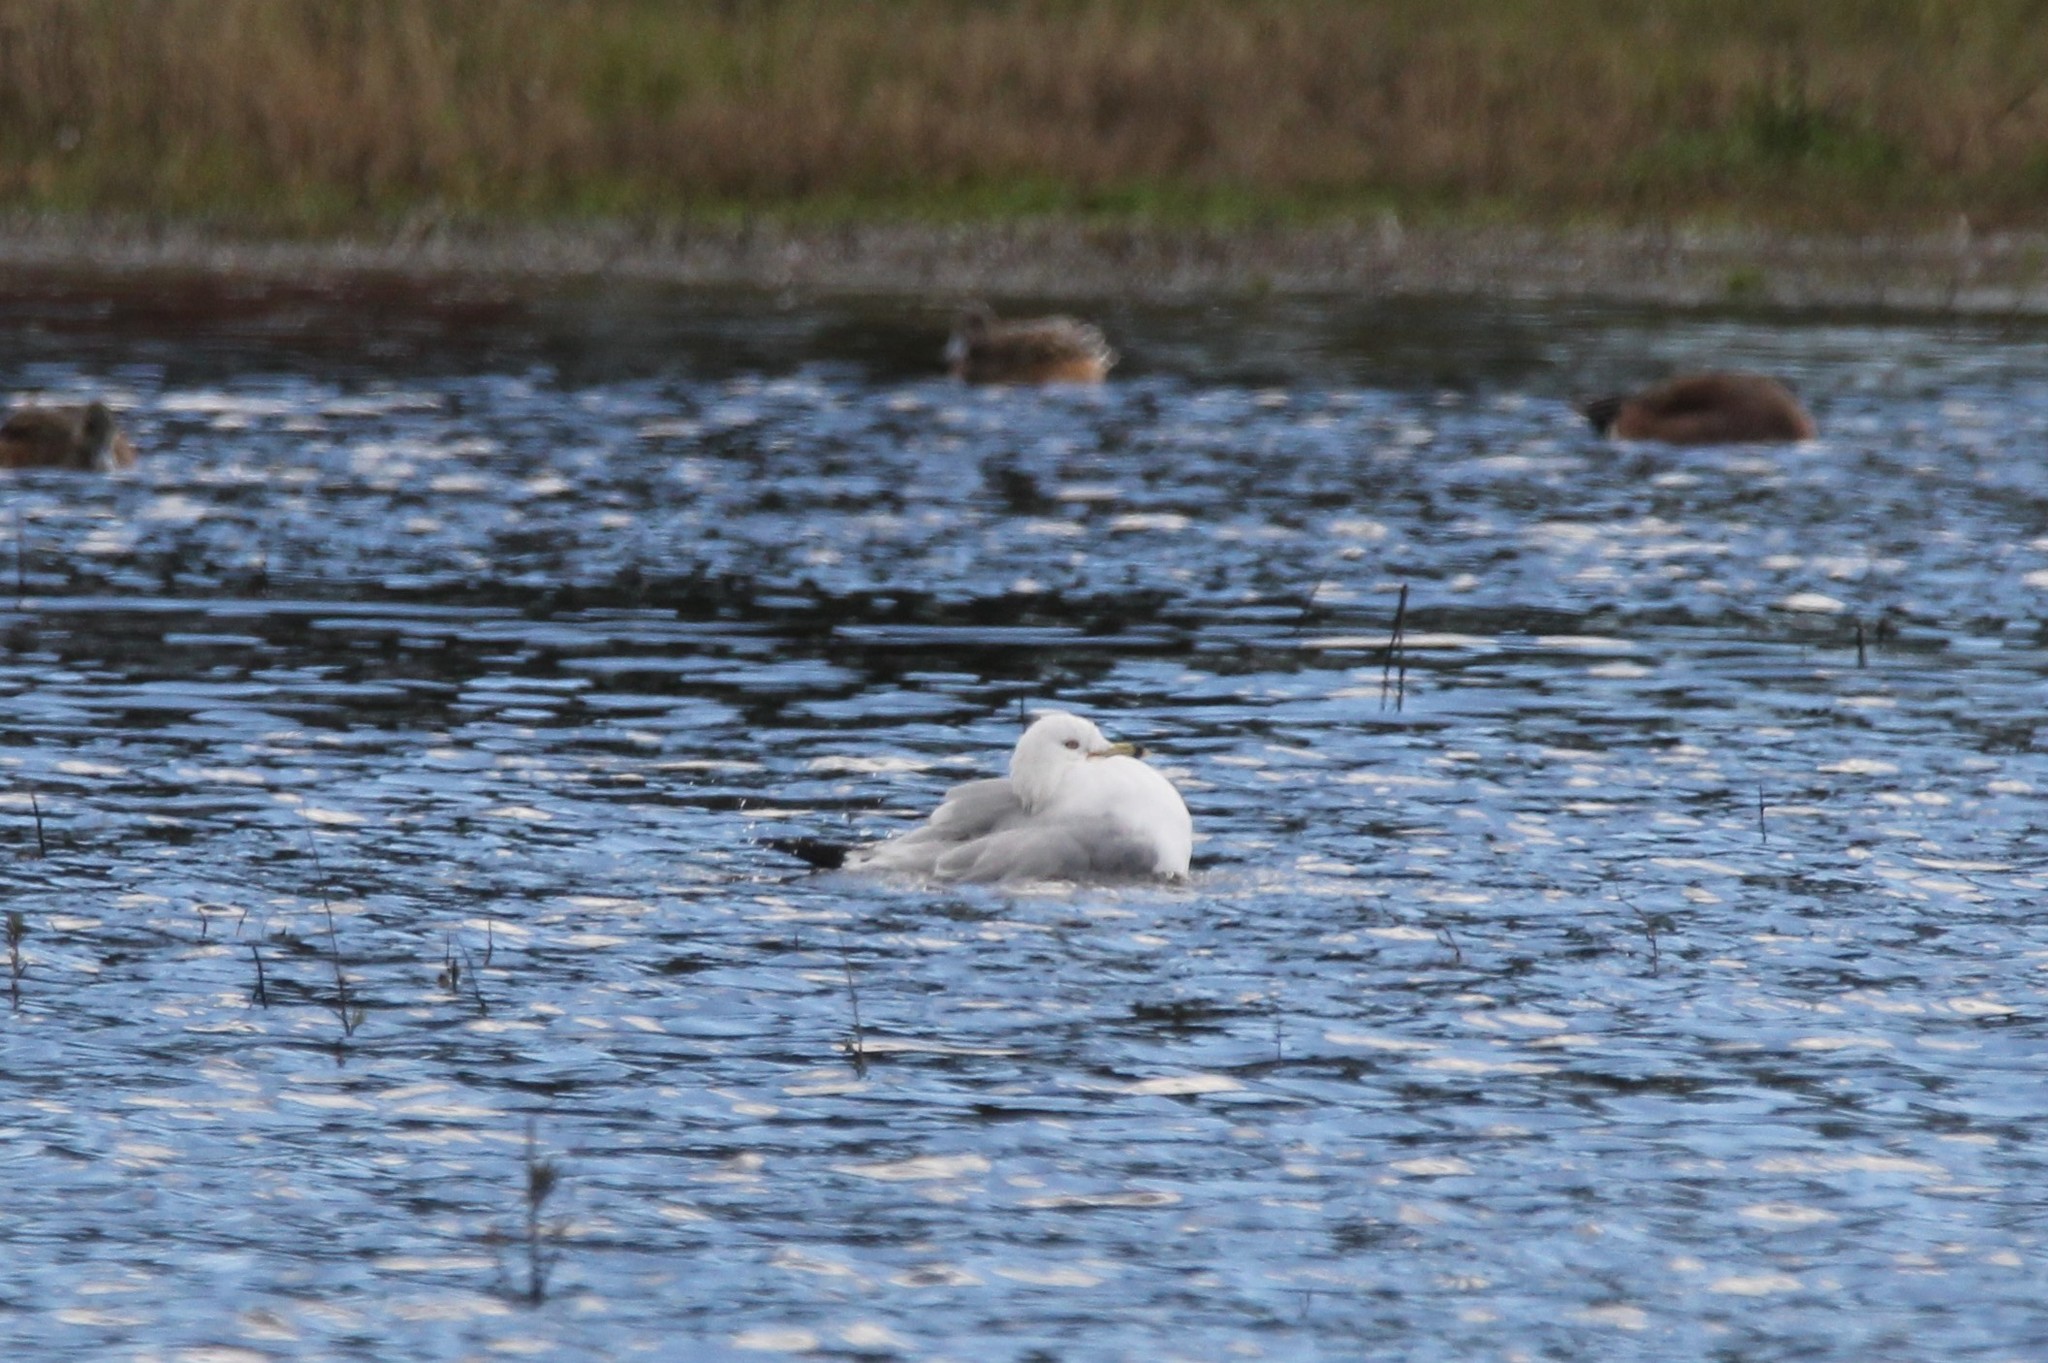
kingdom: Animalia
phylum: Chordata
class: Aves
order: Charadriiformes
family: Laridae
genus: Larus
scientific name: Larus delawarensis
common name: Ring-billed gull
